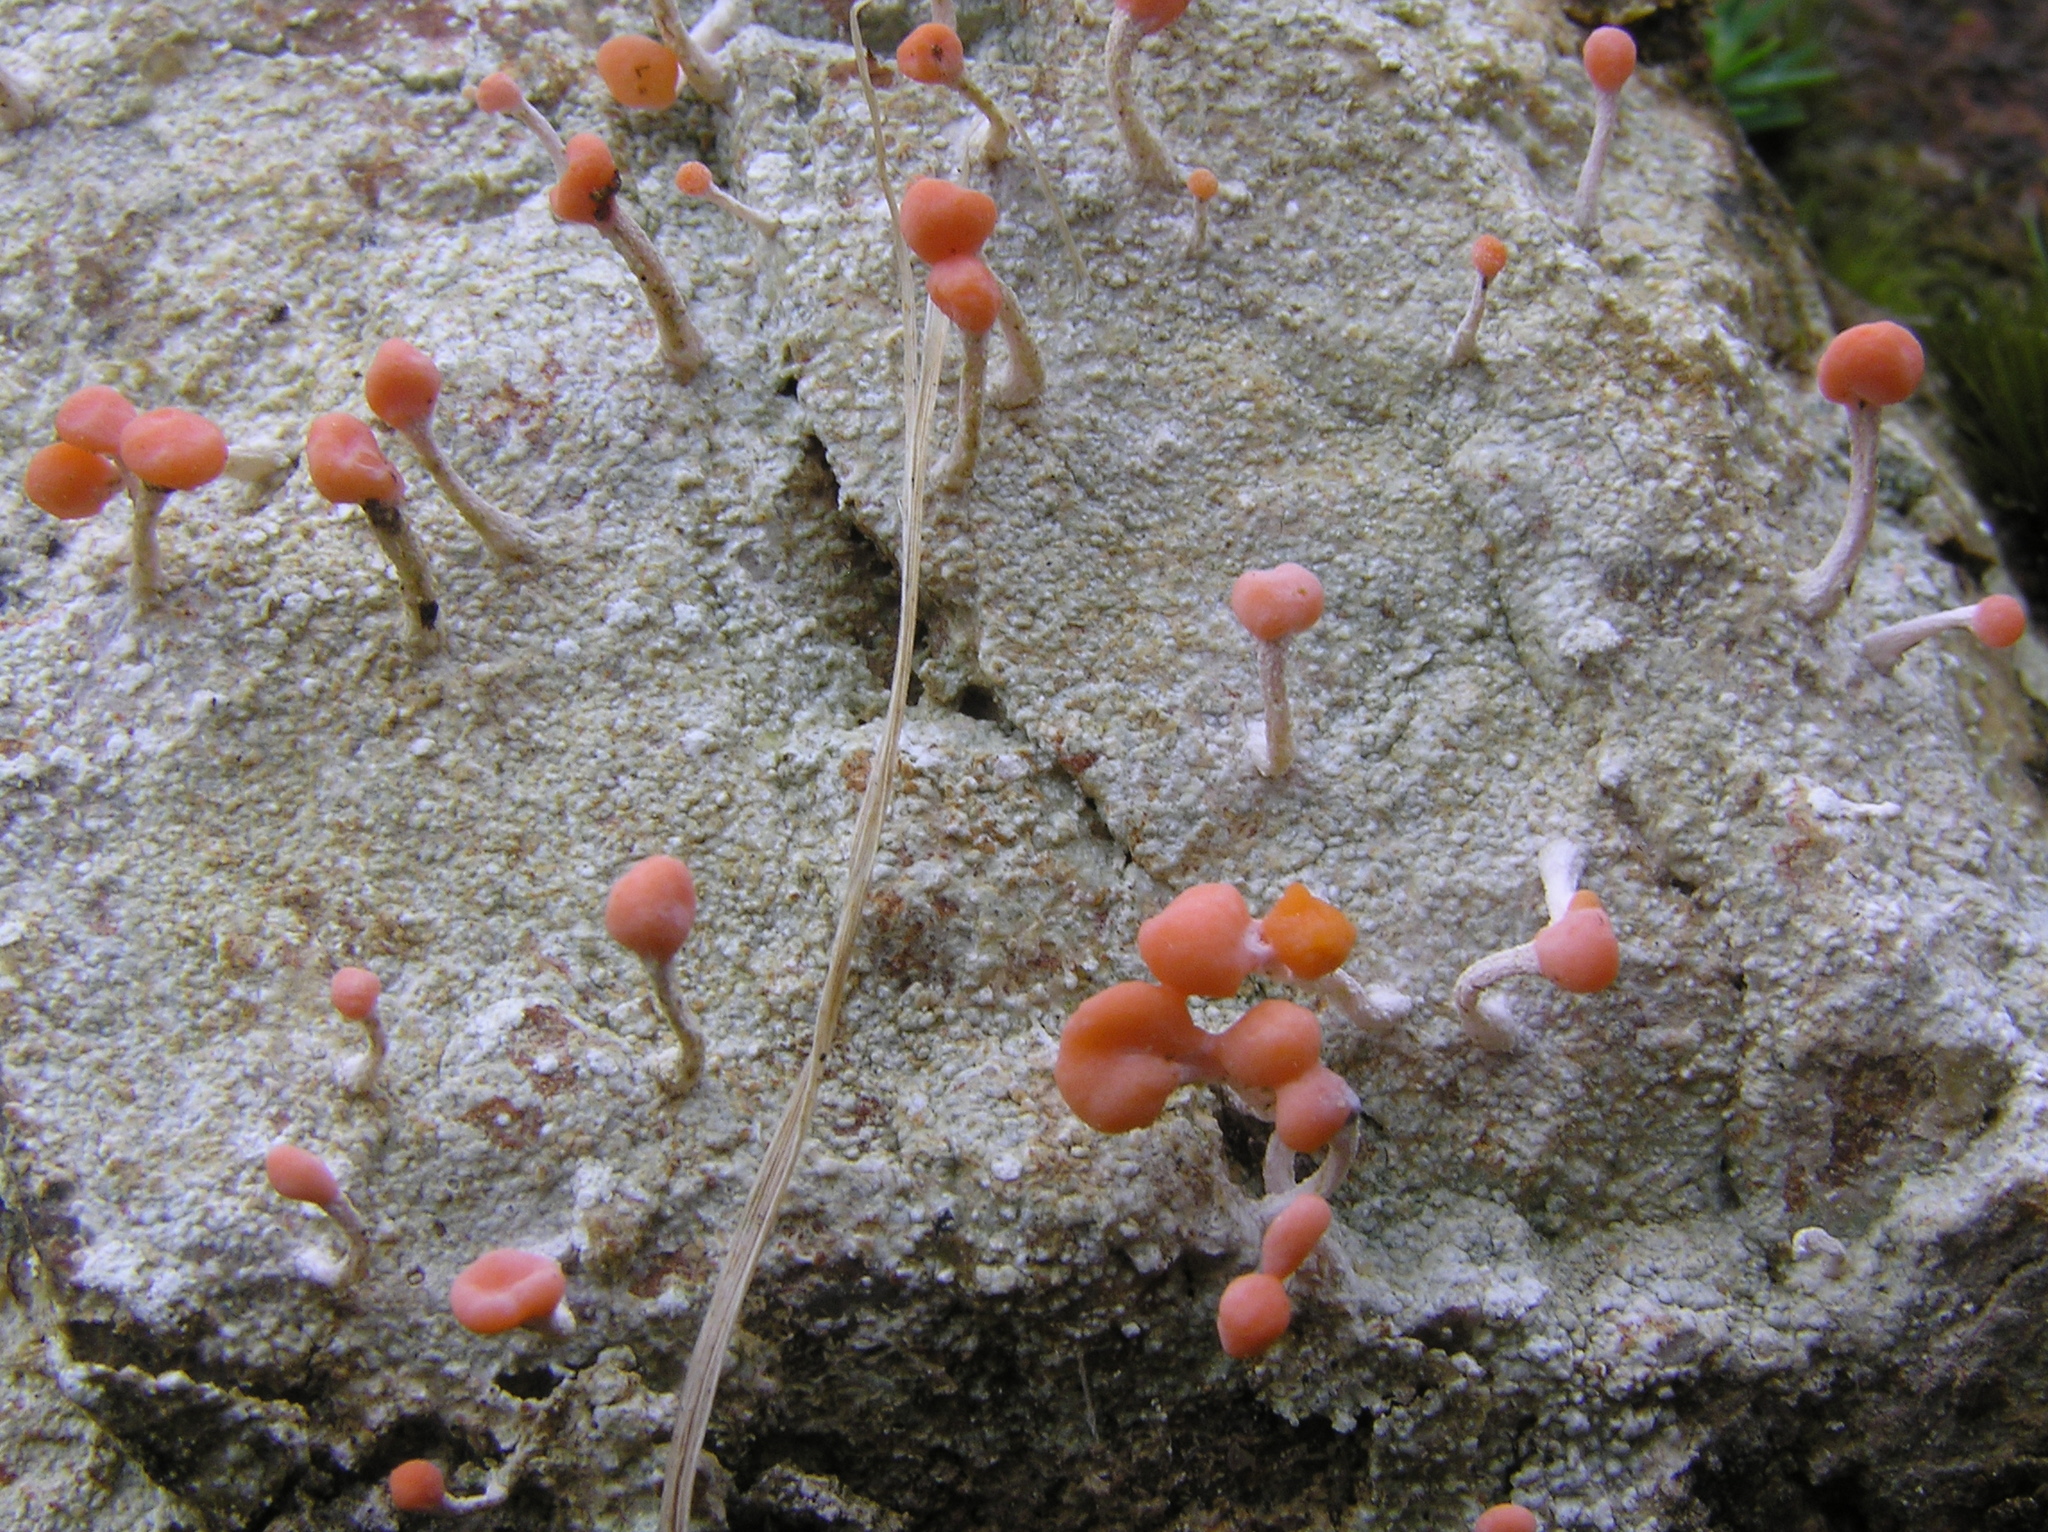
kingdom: Fungi
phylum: Ascomycota
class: Lecanoromycetes
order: Pertusariales
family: Icmadophilaceae
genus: Dibaeis
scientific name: Dibaeis arcuata
